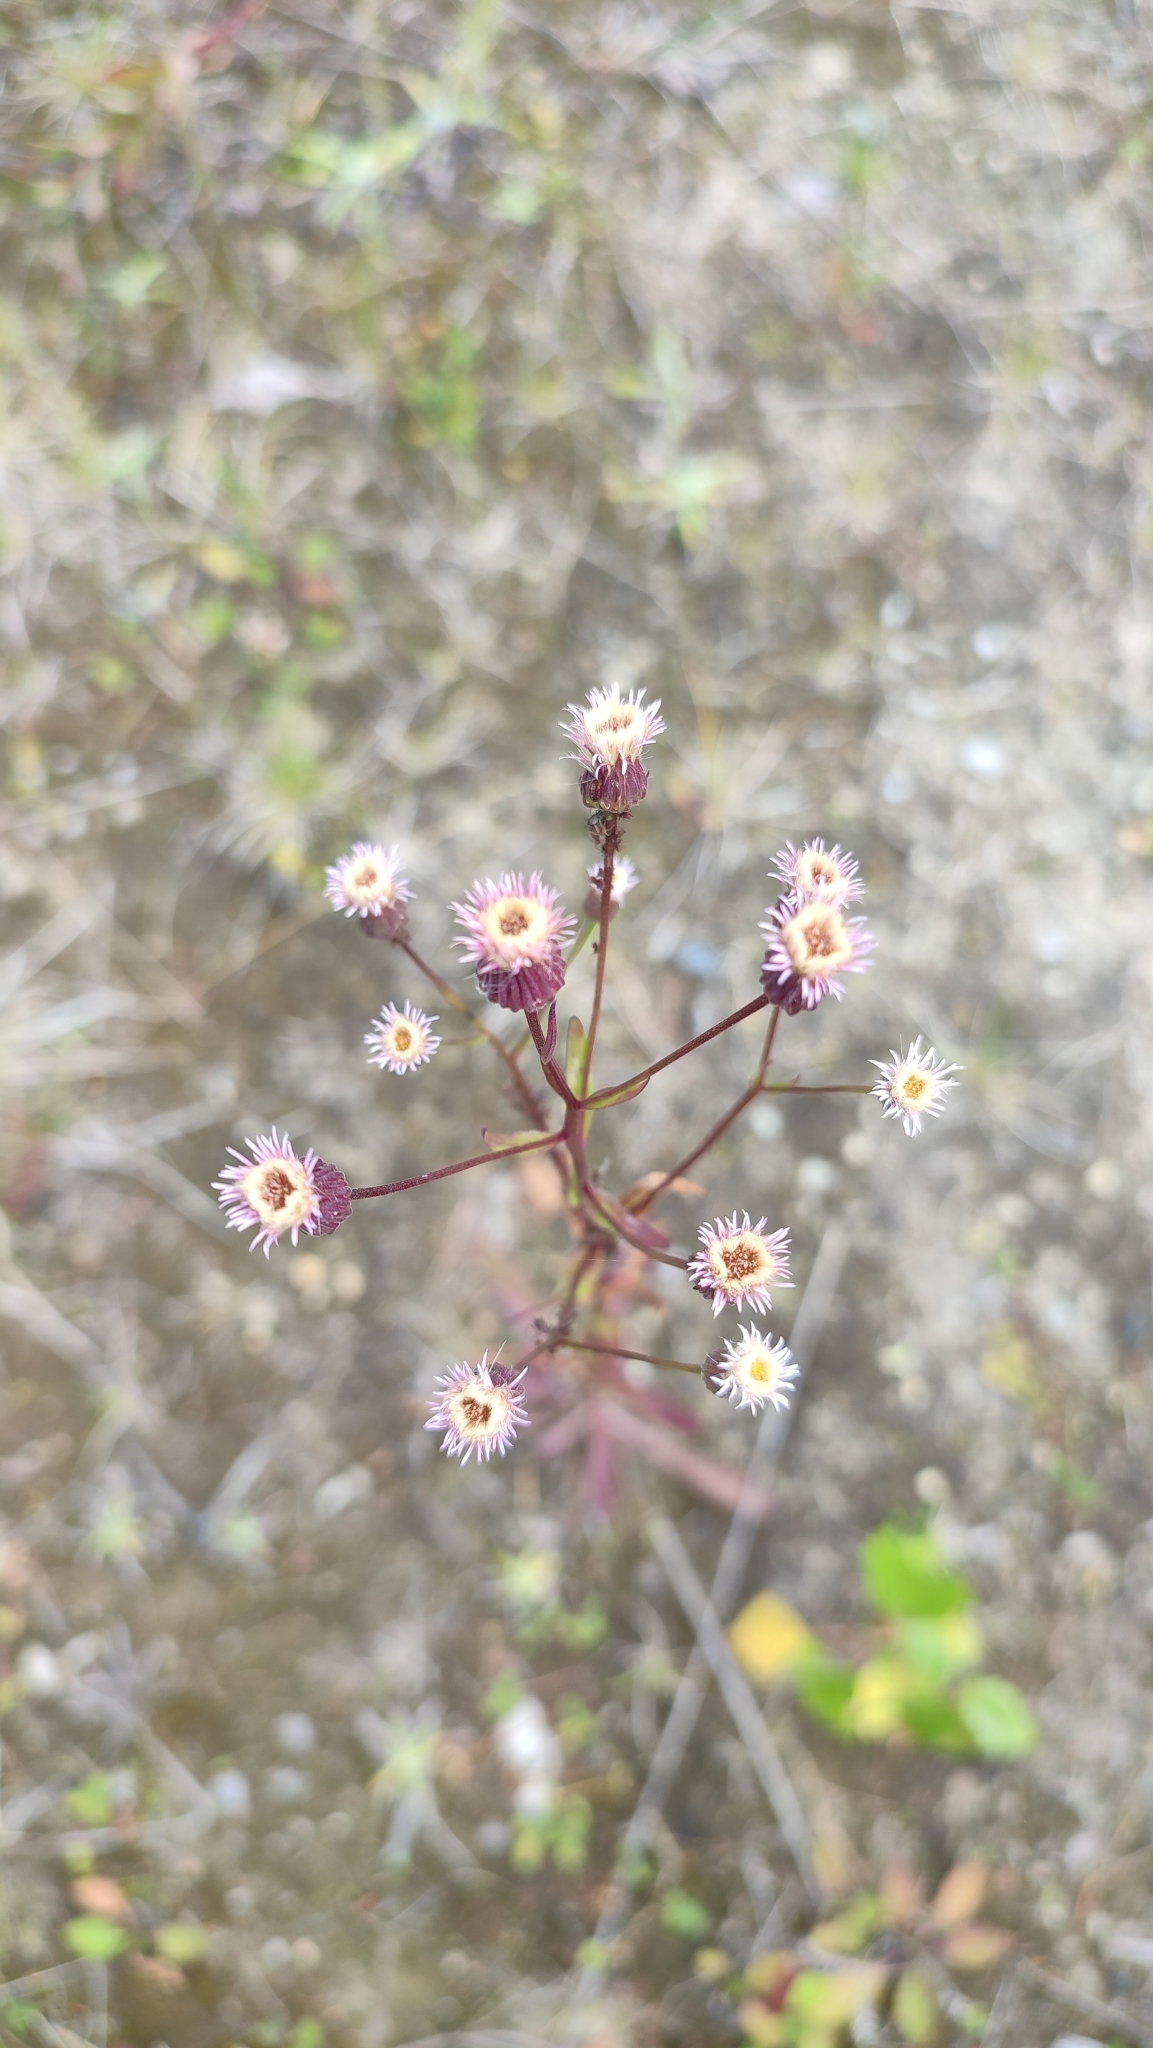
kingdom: Plantae
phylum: Tracheophyta
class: Magnoliopsida
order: Asterales
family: Asteraceae
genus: Erigeron
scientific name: Erigeron acris
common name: Blue fleabane
